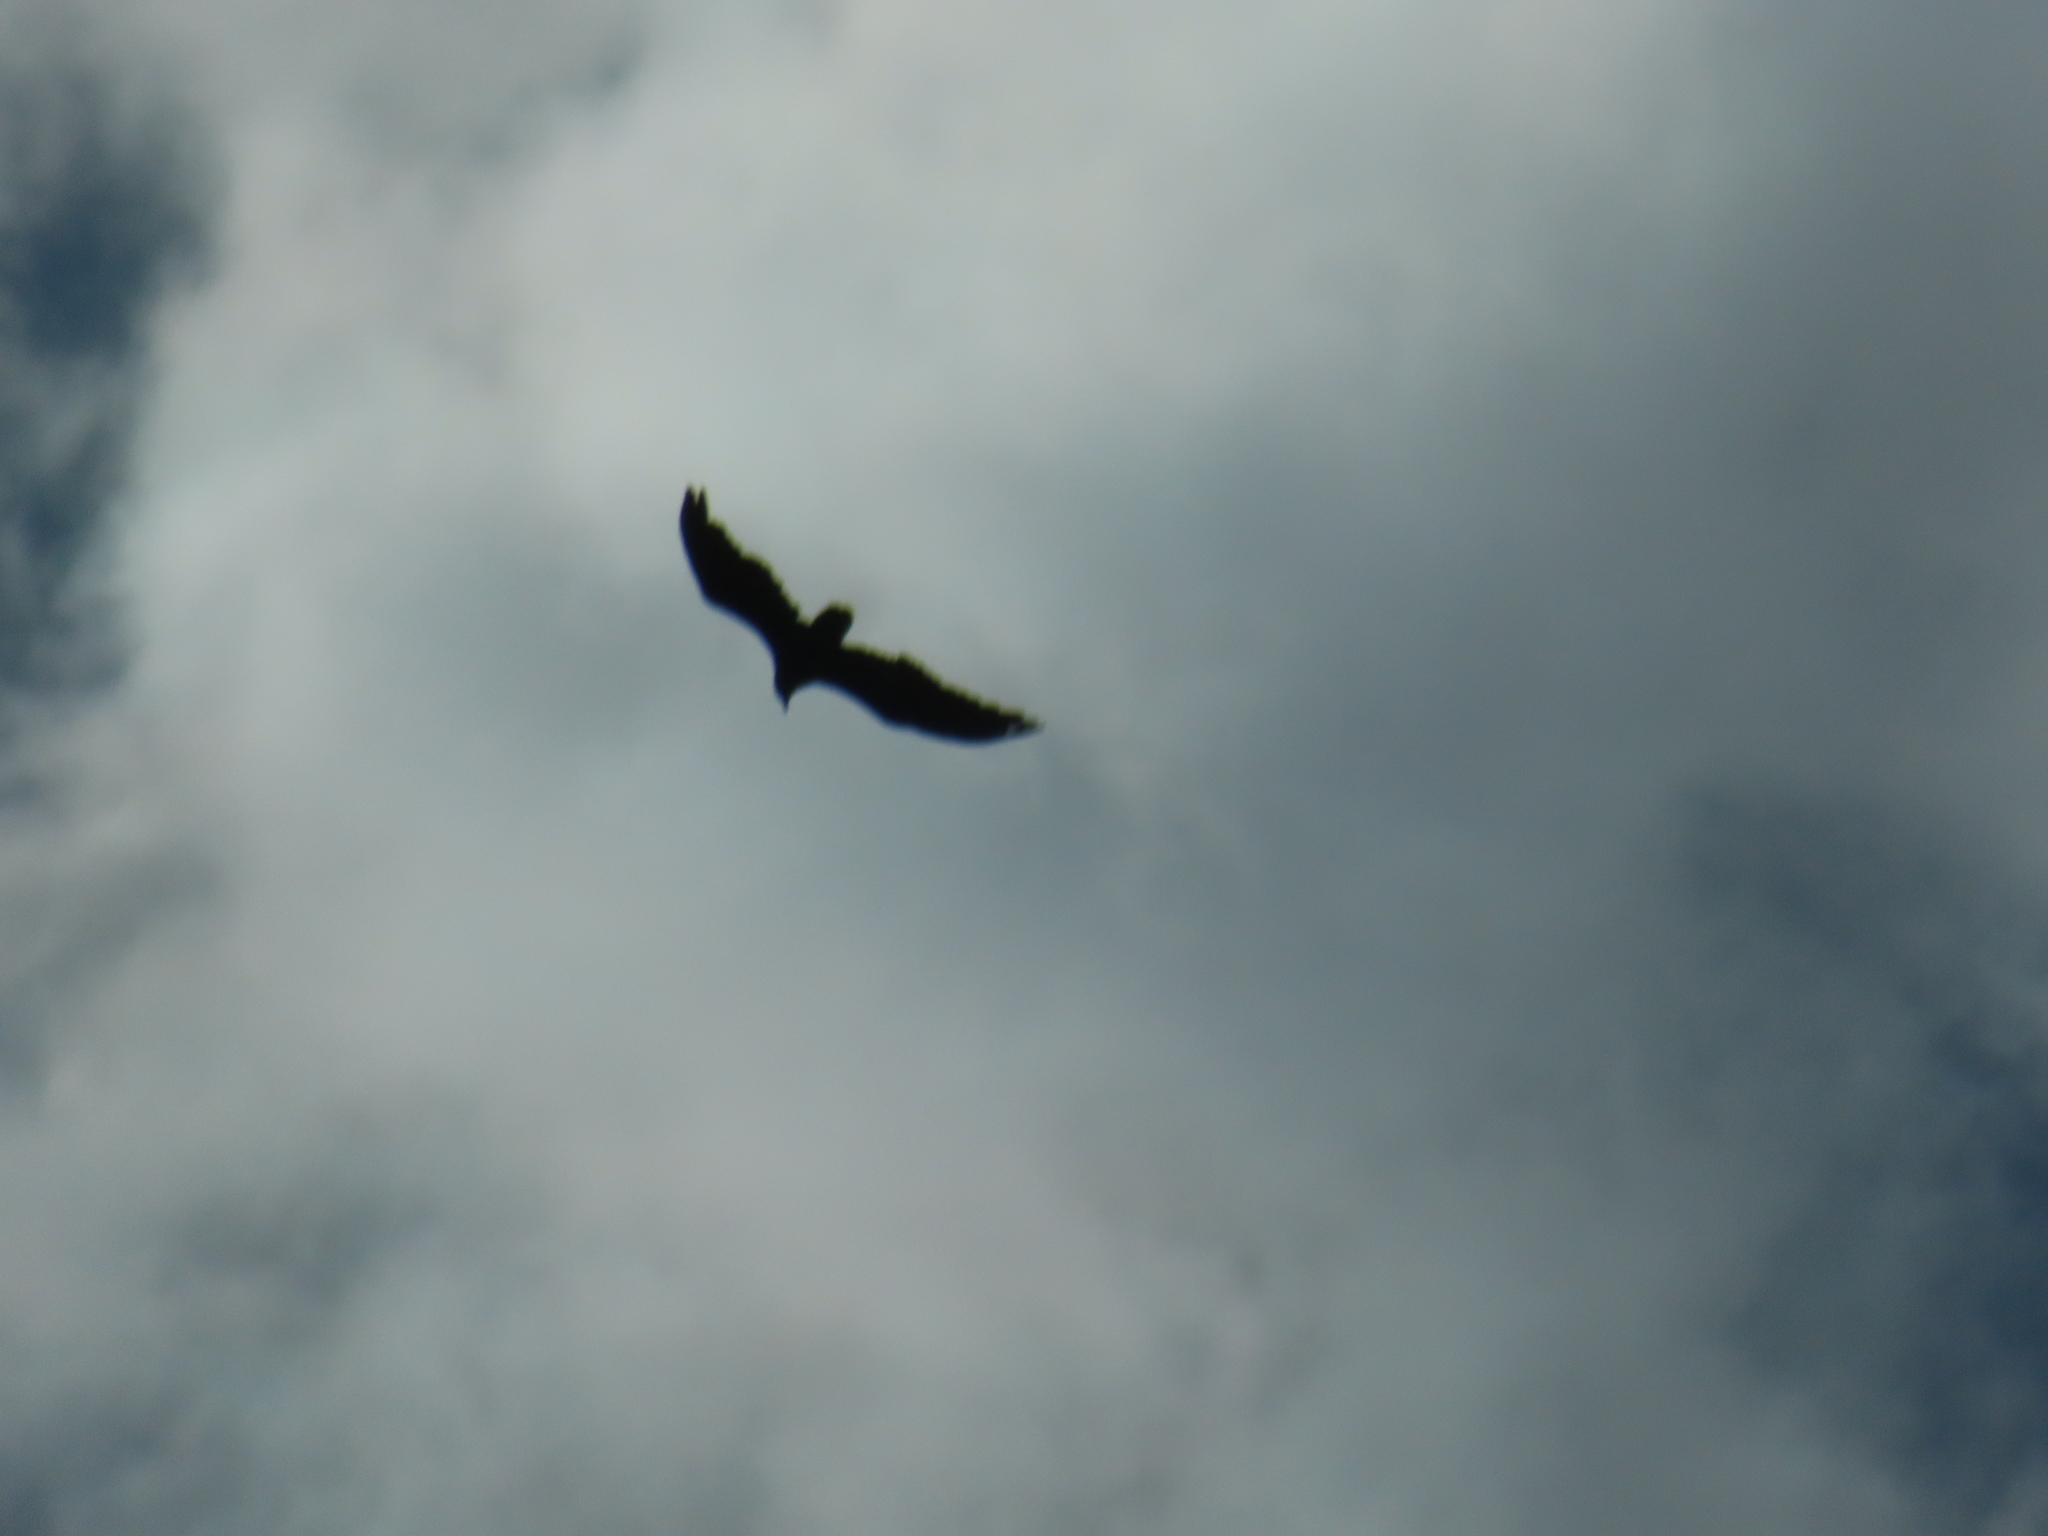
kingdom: Animalia
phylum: Chordata
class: Aves
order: Accipitriformes
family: Cathartidae
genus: Cathartes
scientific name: Cathartes aura
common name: Turkey vulture
